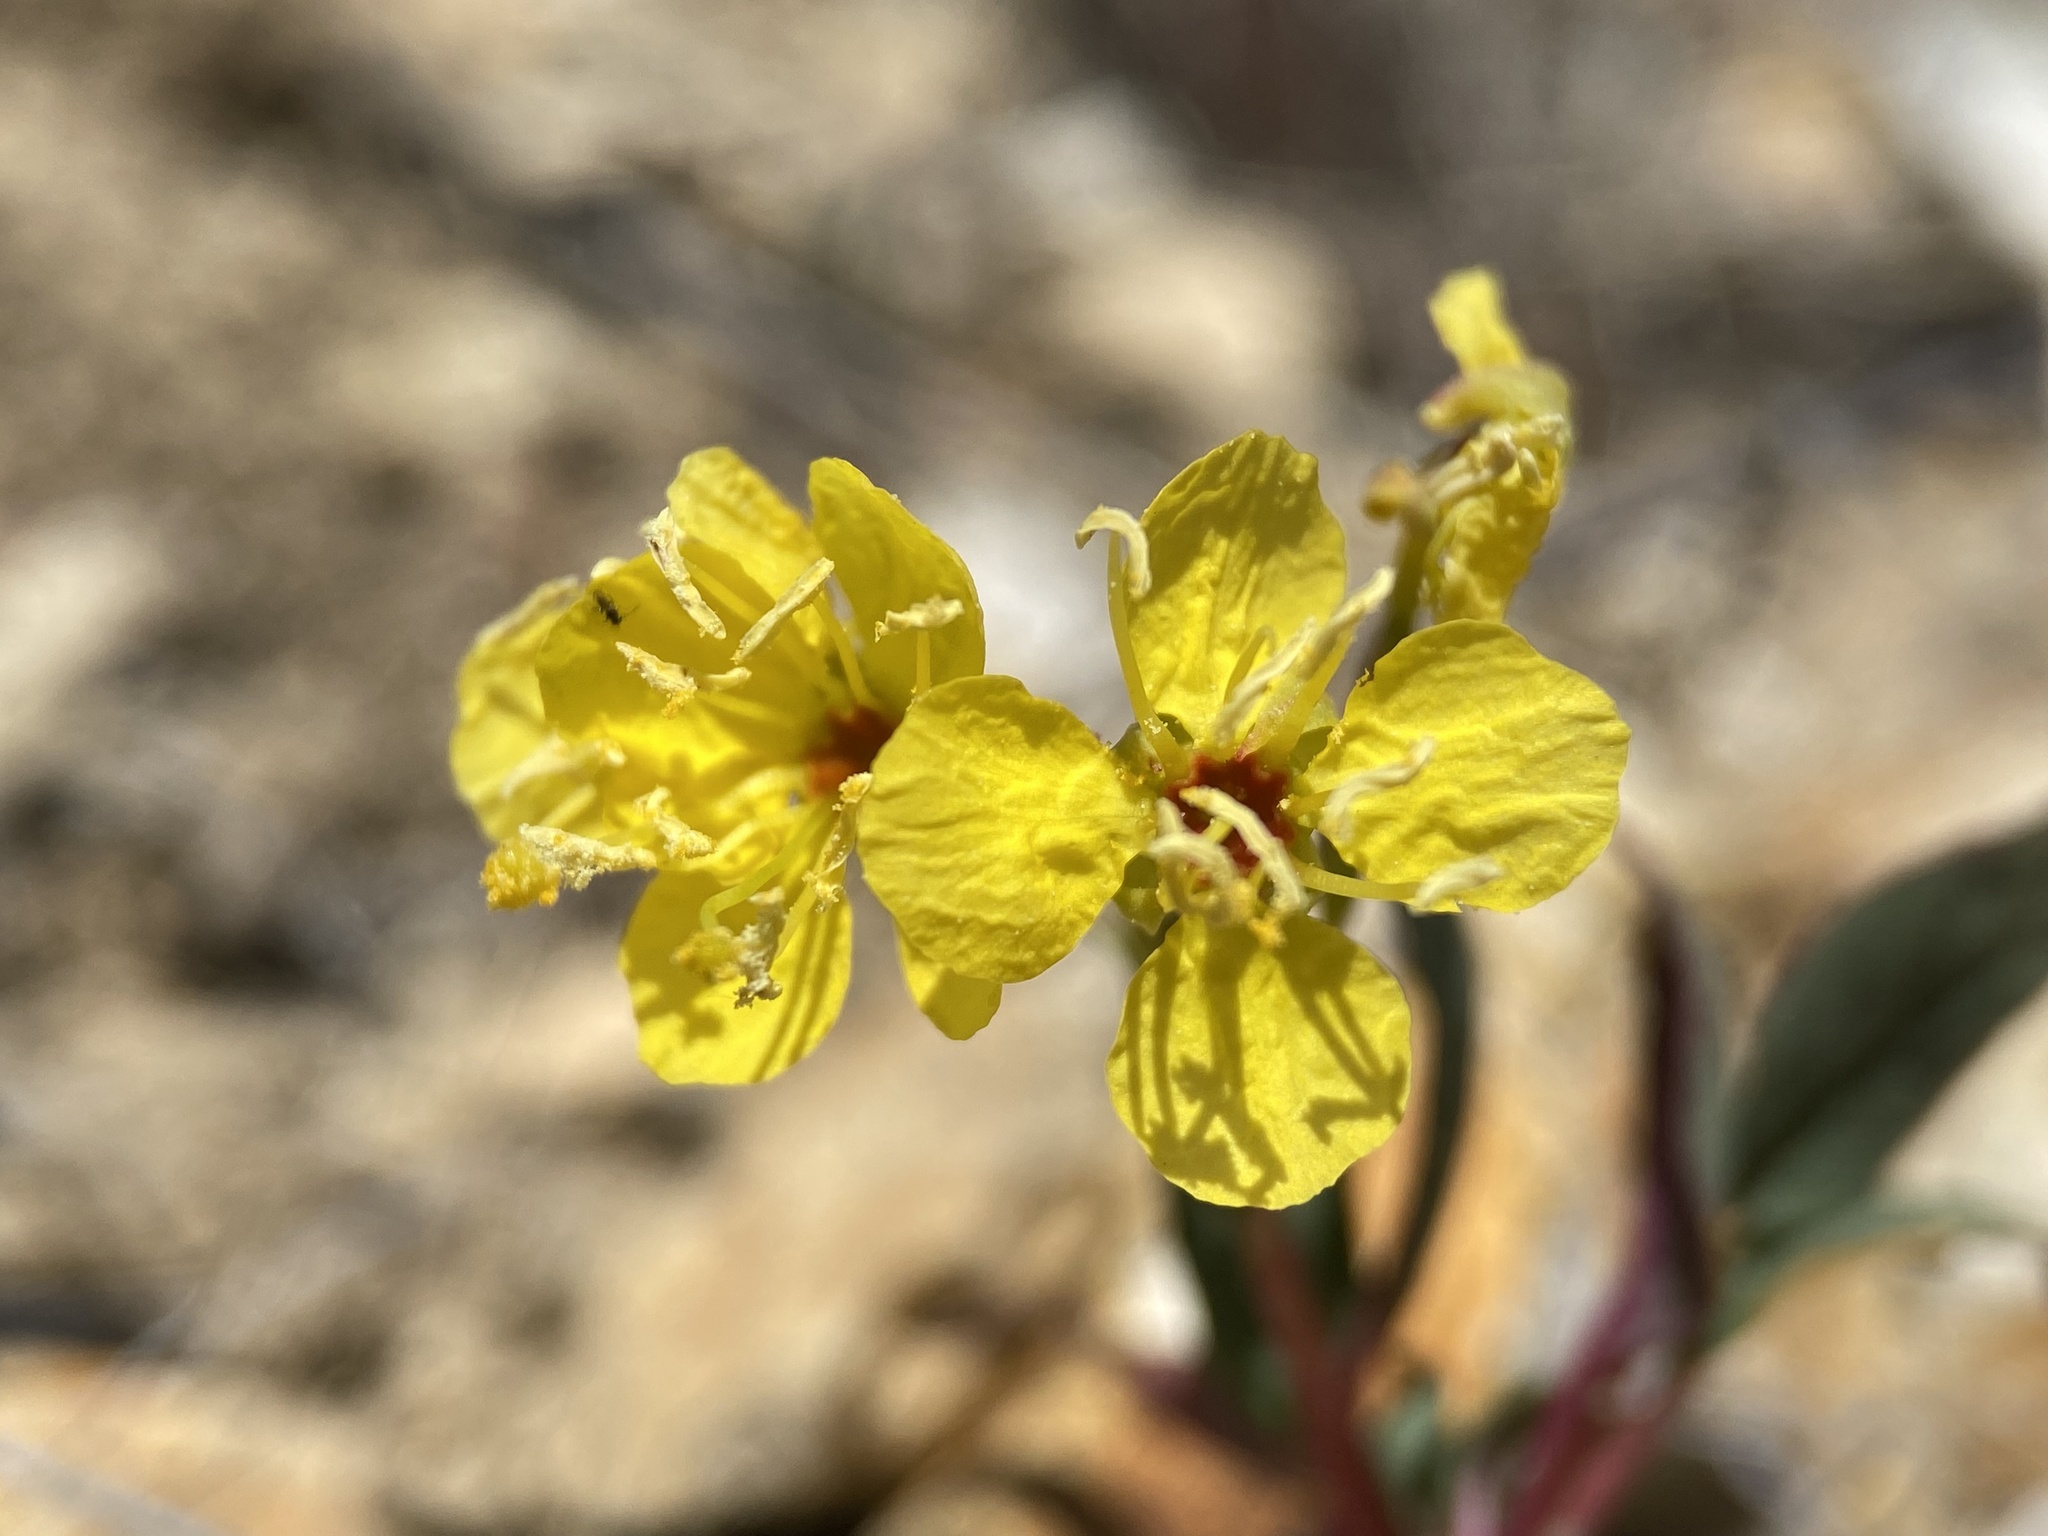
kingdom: Plantae
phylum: Tracheophyta
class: Magnoliopsida
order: Myrtales
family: Onagraceae
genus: Chylismia
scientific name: Chylismia scapoidea
